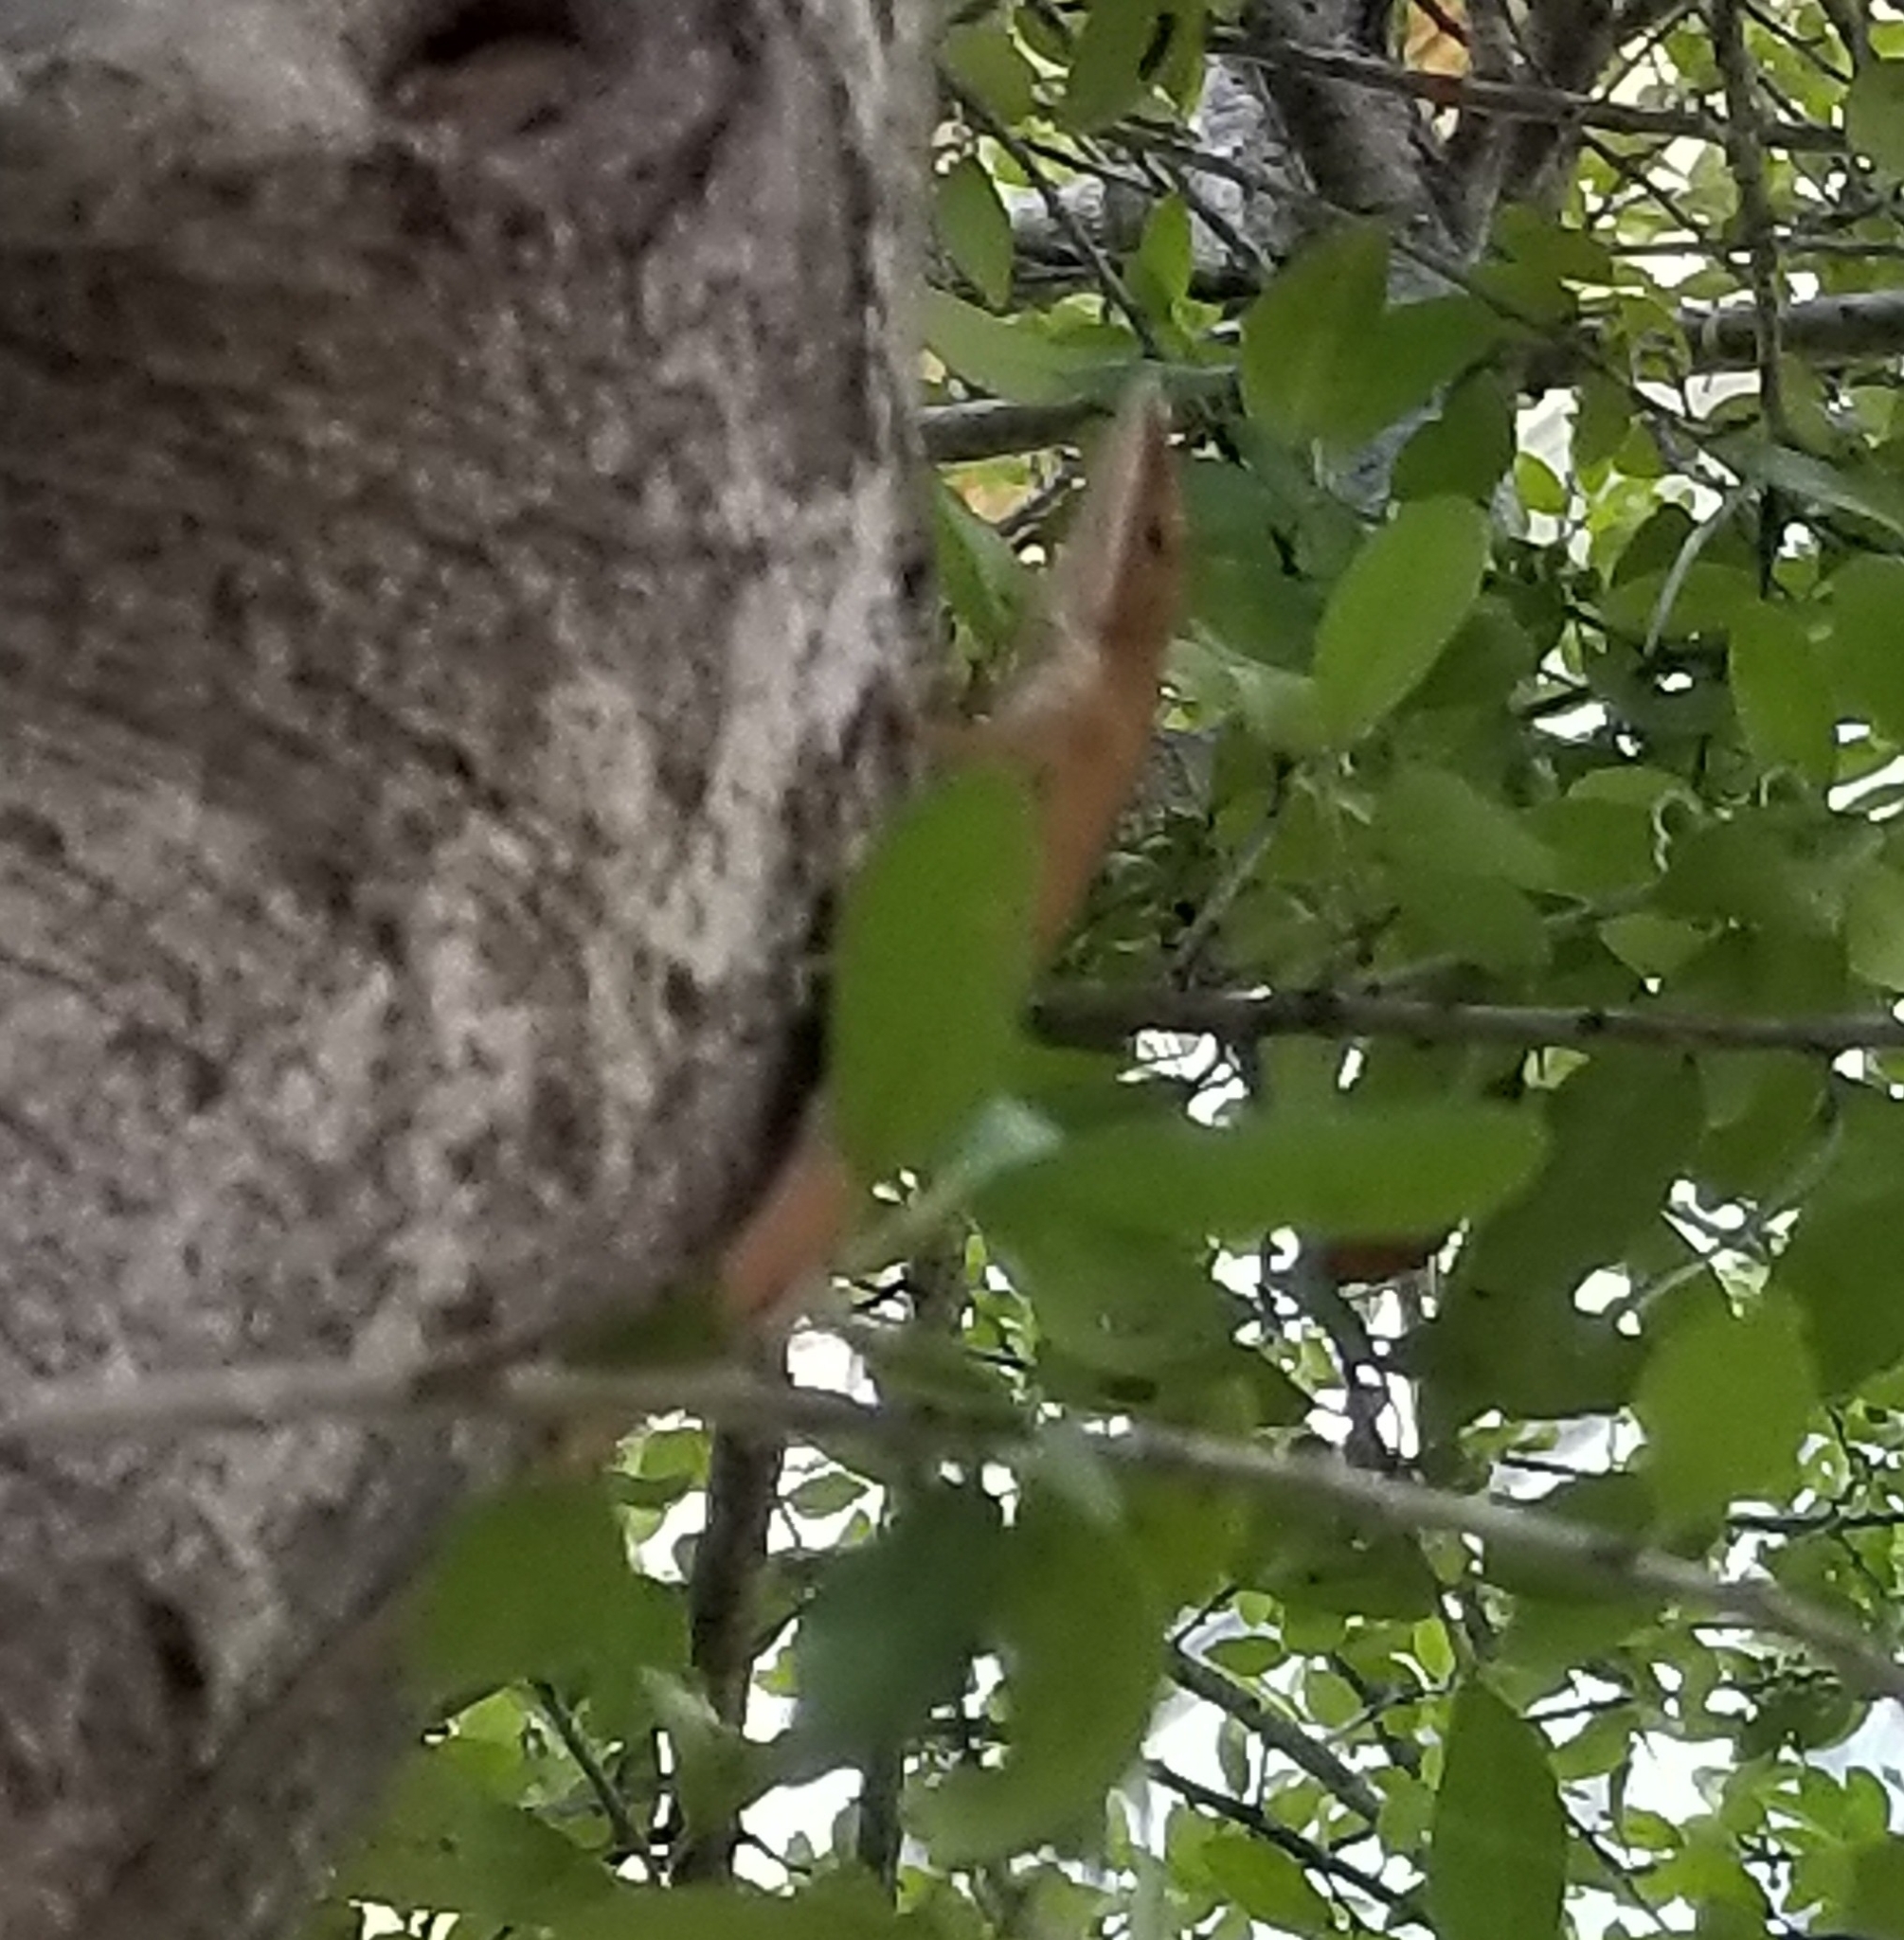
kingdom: Animalia
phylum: Chordata
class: Squamata
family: Dactyloidae
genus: Anolis
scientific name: Anolis carolinensis
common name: Green anole
